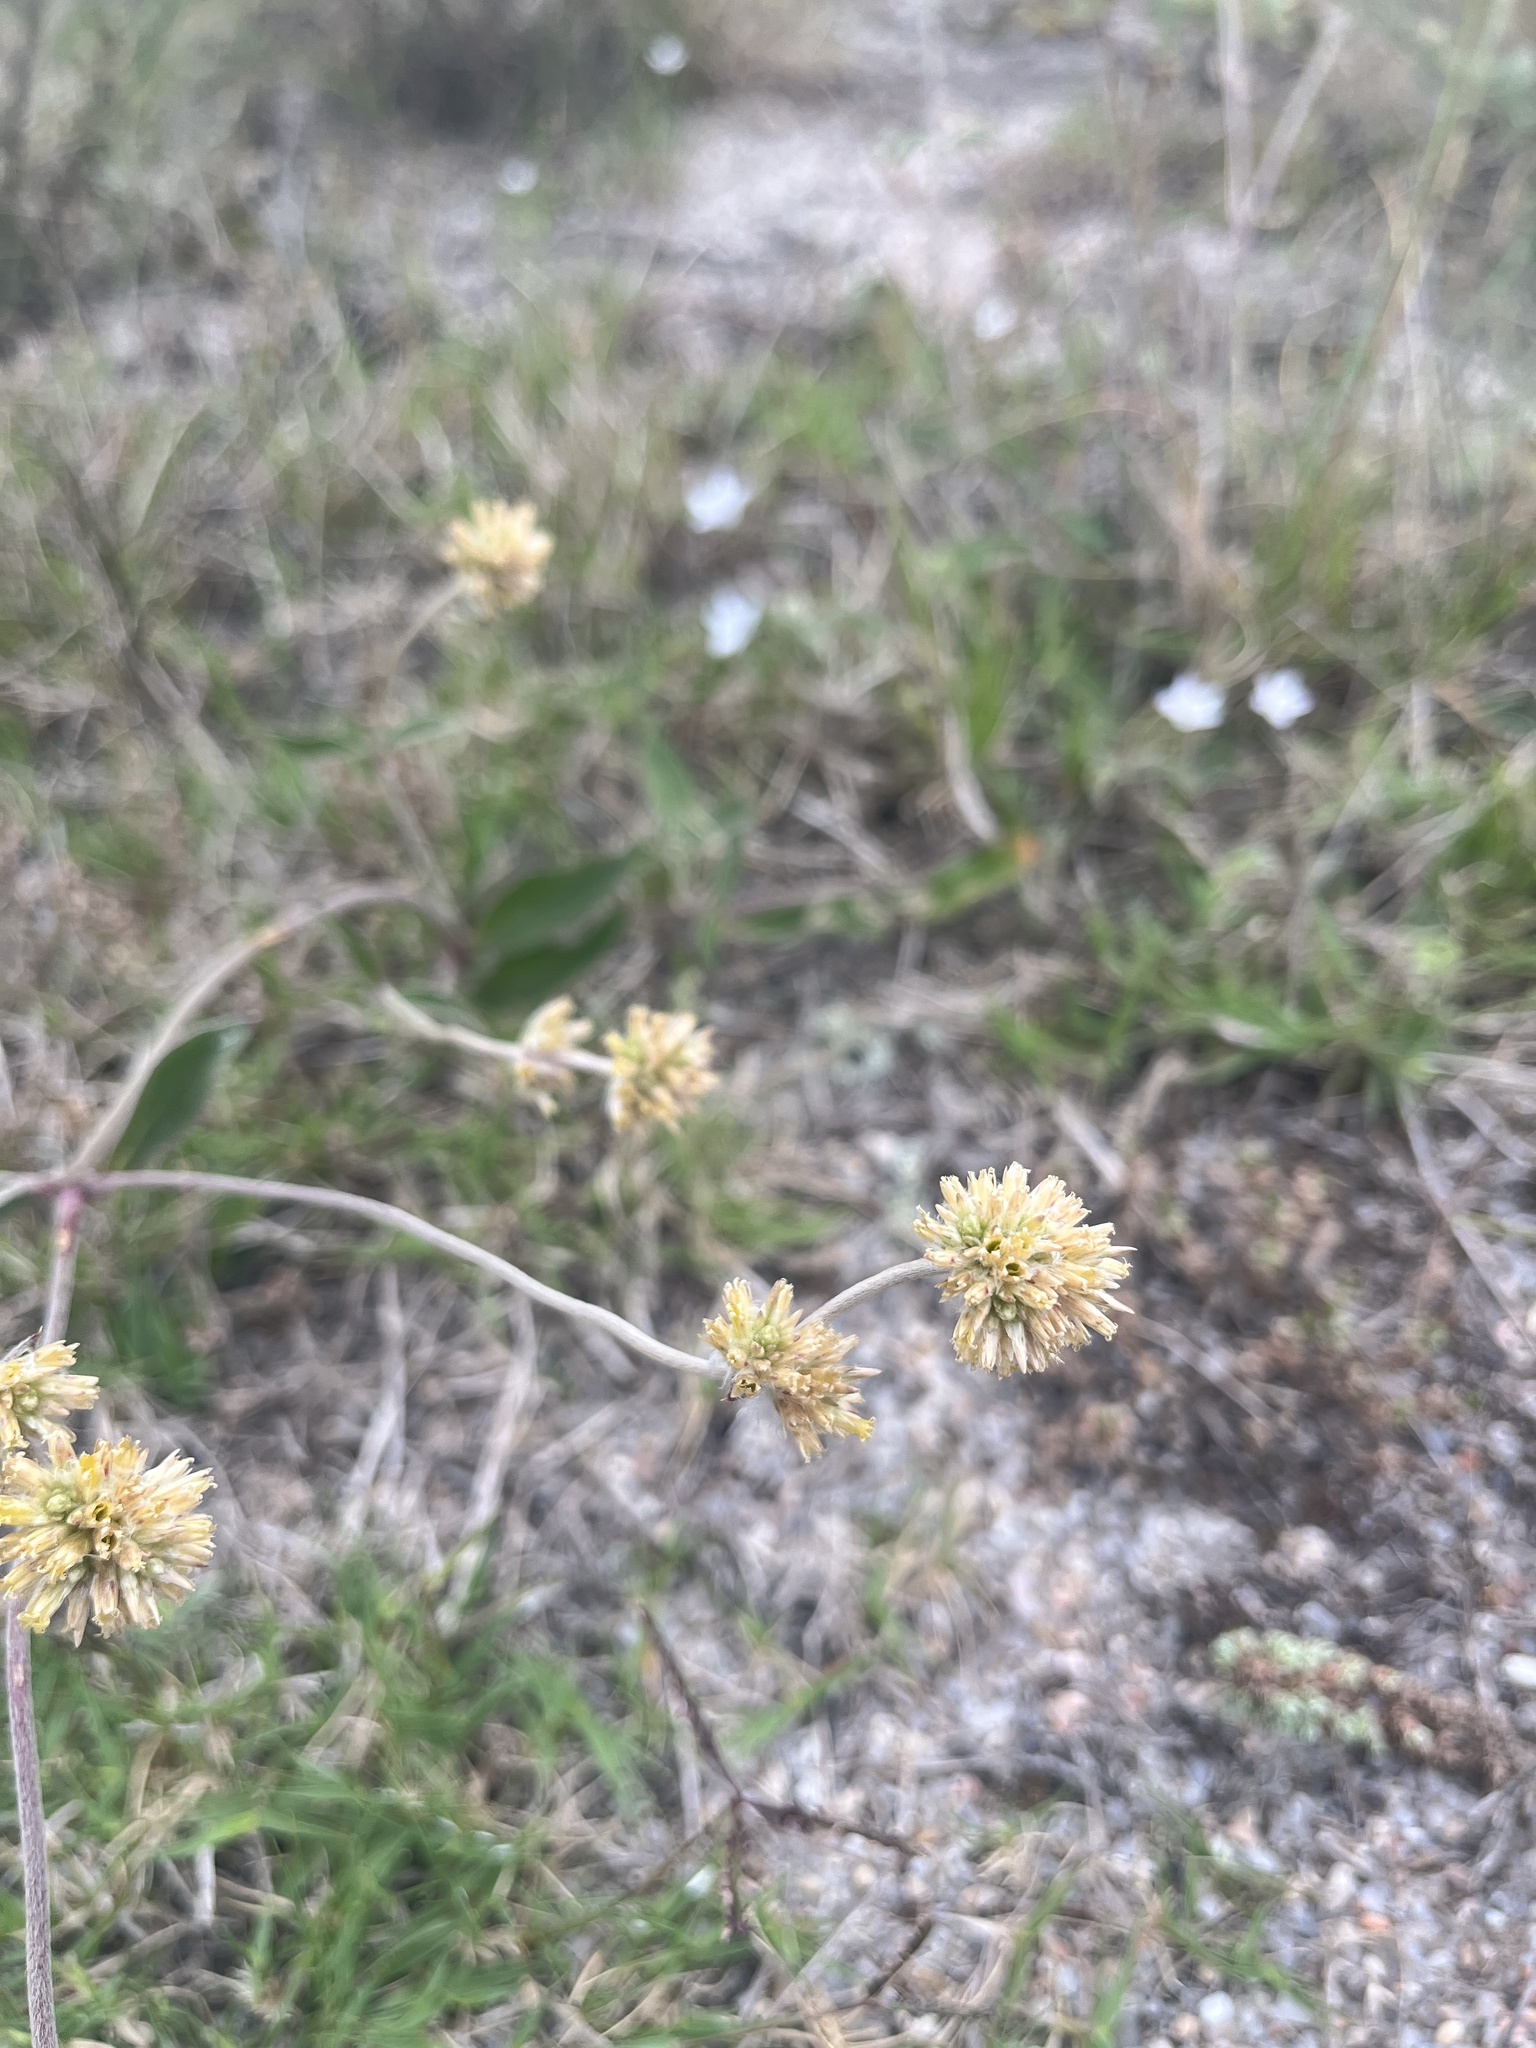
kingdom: Plantae
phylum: Tracheophyta
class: Magnoliopsida
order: Caryophyllales
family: Amaranthaceae
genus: Gomphrena
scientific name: Gomphrena perennis
